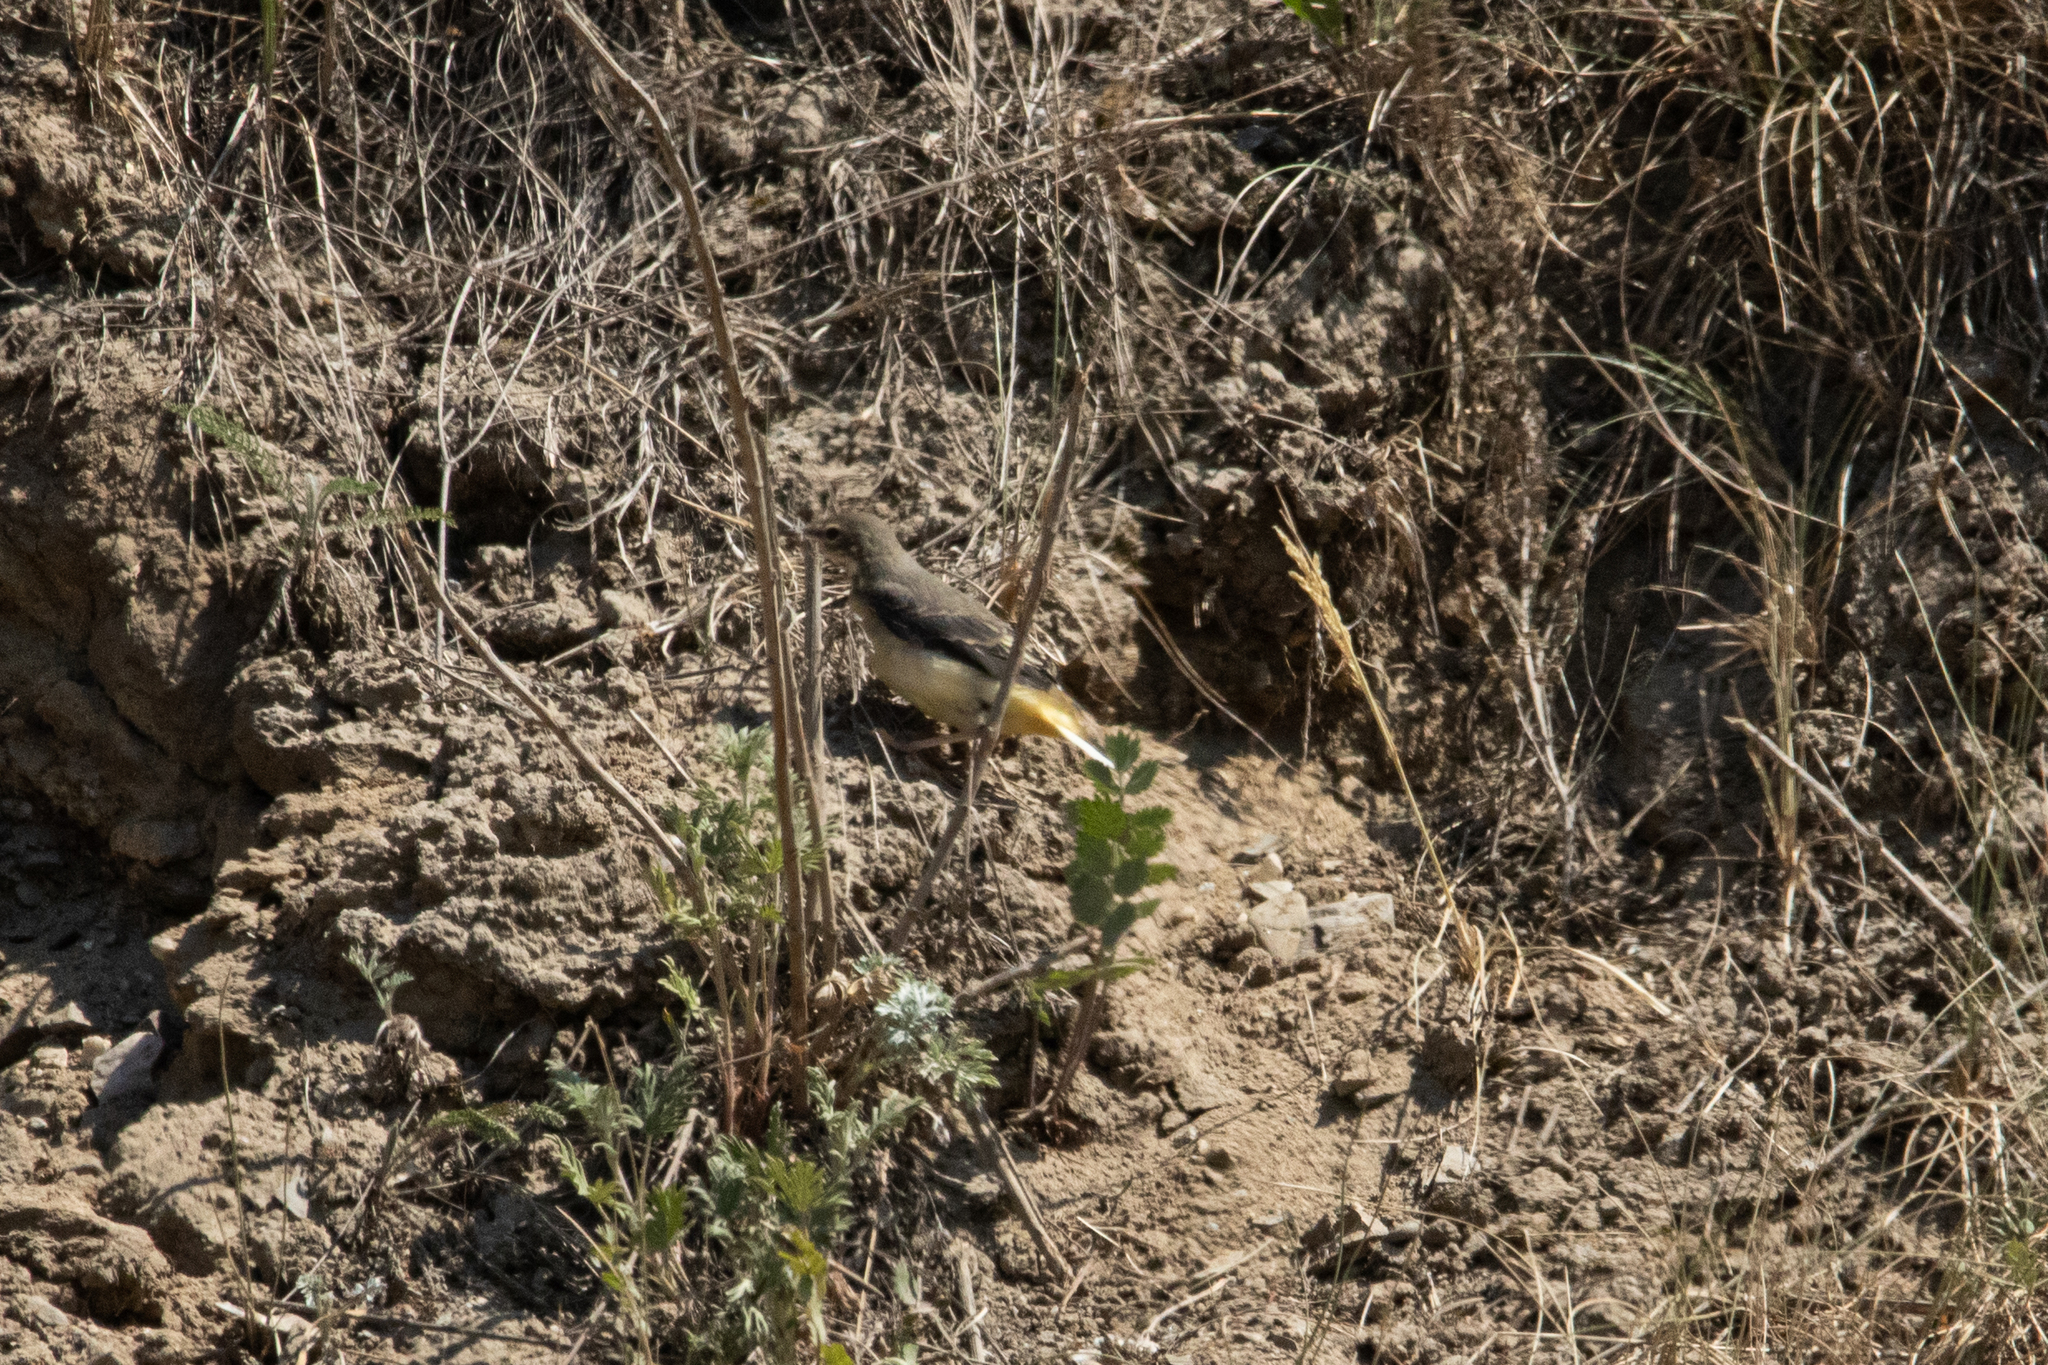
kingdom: Animalia
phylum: Chordata
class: Aves
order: Passeriformes
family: Motacillidae
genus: Motacilla
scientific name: Motacilla cinerea
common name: Grey wagtail
